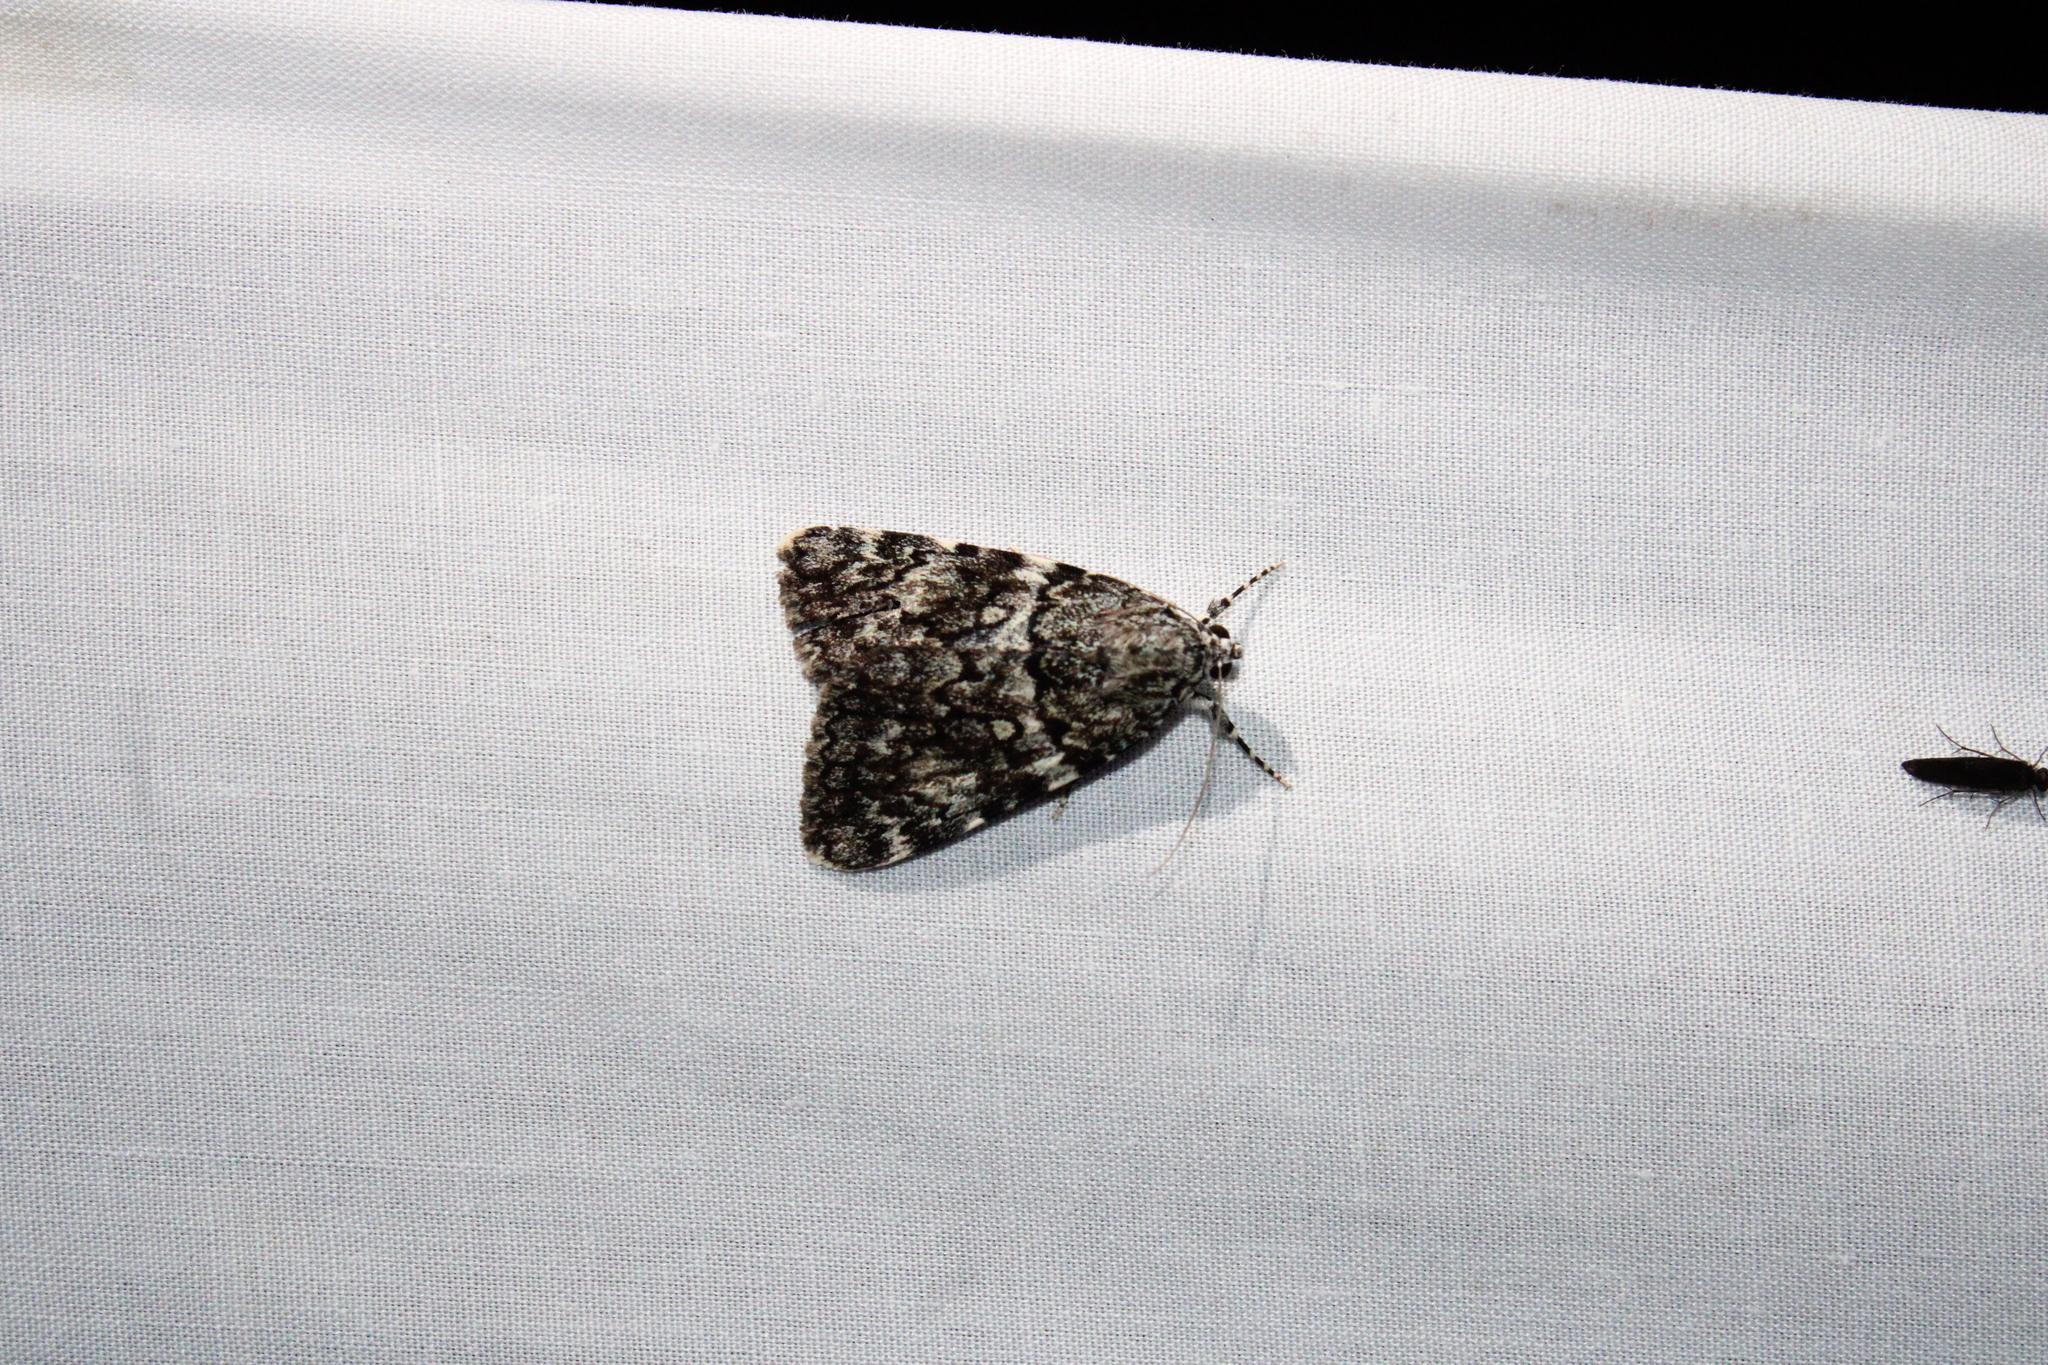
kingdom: Animalia
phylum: Arthropoda
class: Insecta
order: Lepidoptera
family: Erebidae
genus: Catocala
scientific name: Catocala lineella
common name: Little lined underwing
